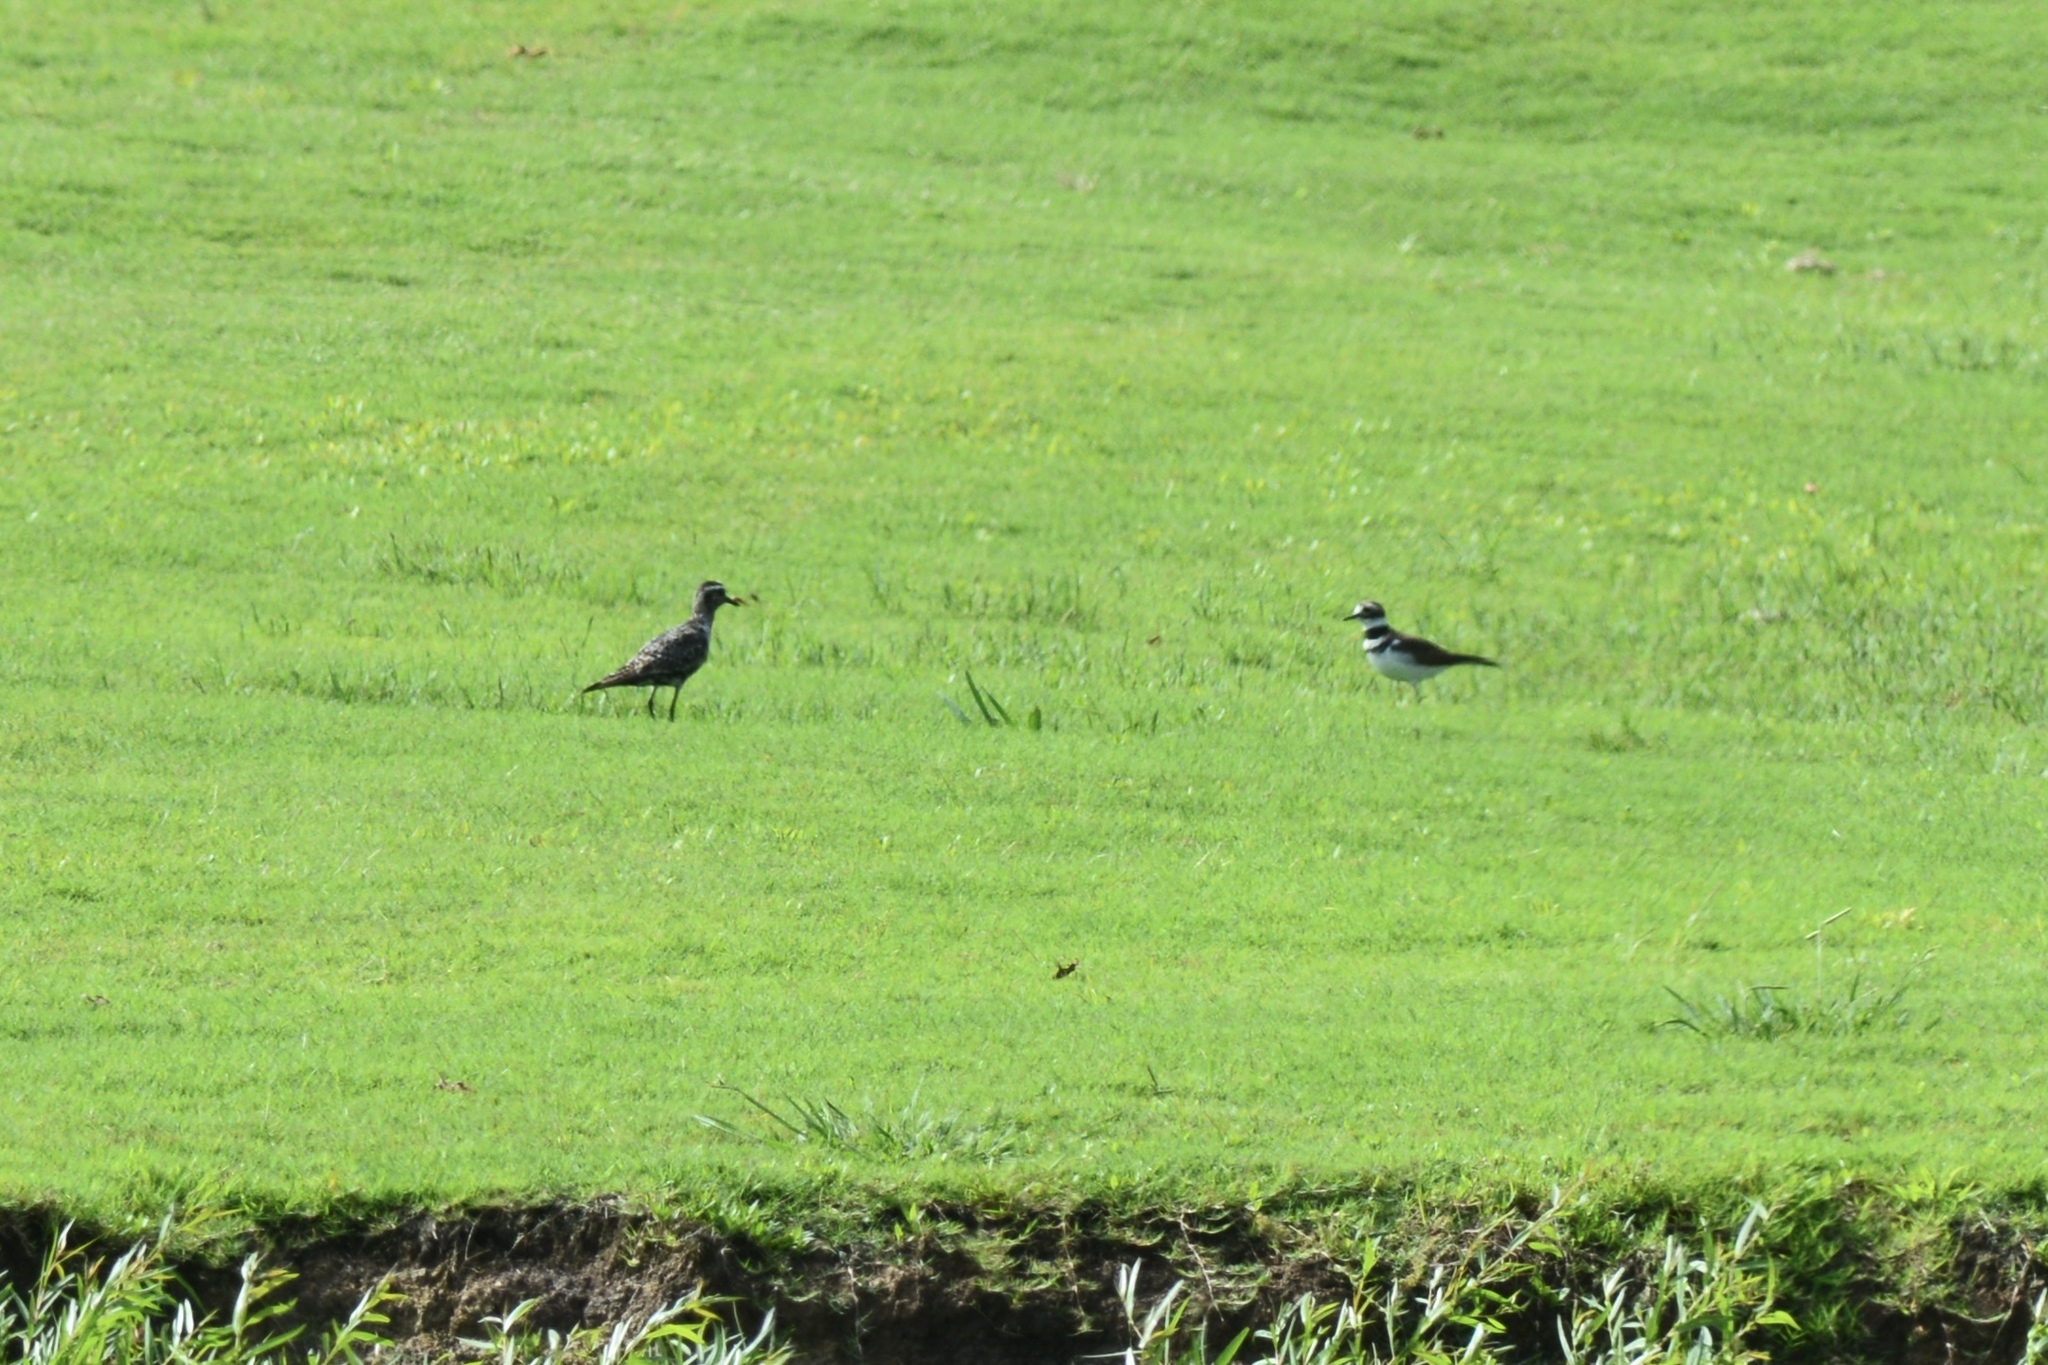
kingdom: Animalia
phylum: Chordata
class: Aves
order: Charadriiformes
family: Charadriidae
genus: Charadrius
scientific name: Charadrius vociferus
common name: Killdeer
